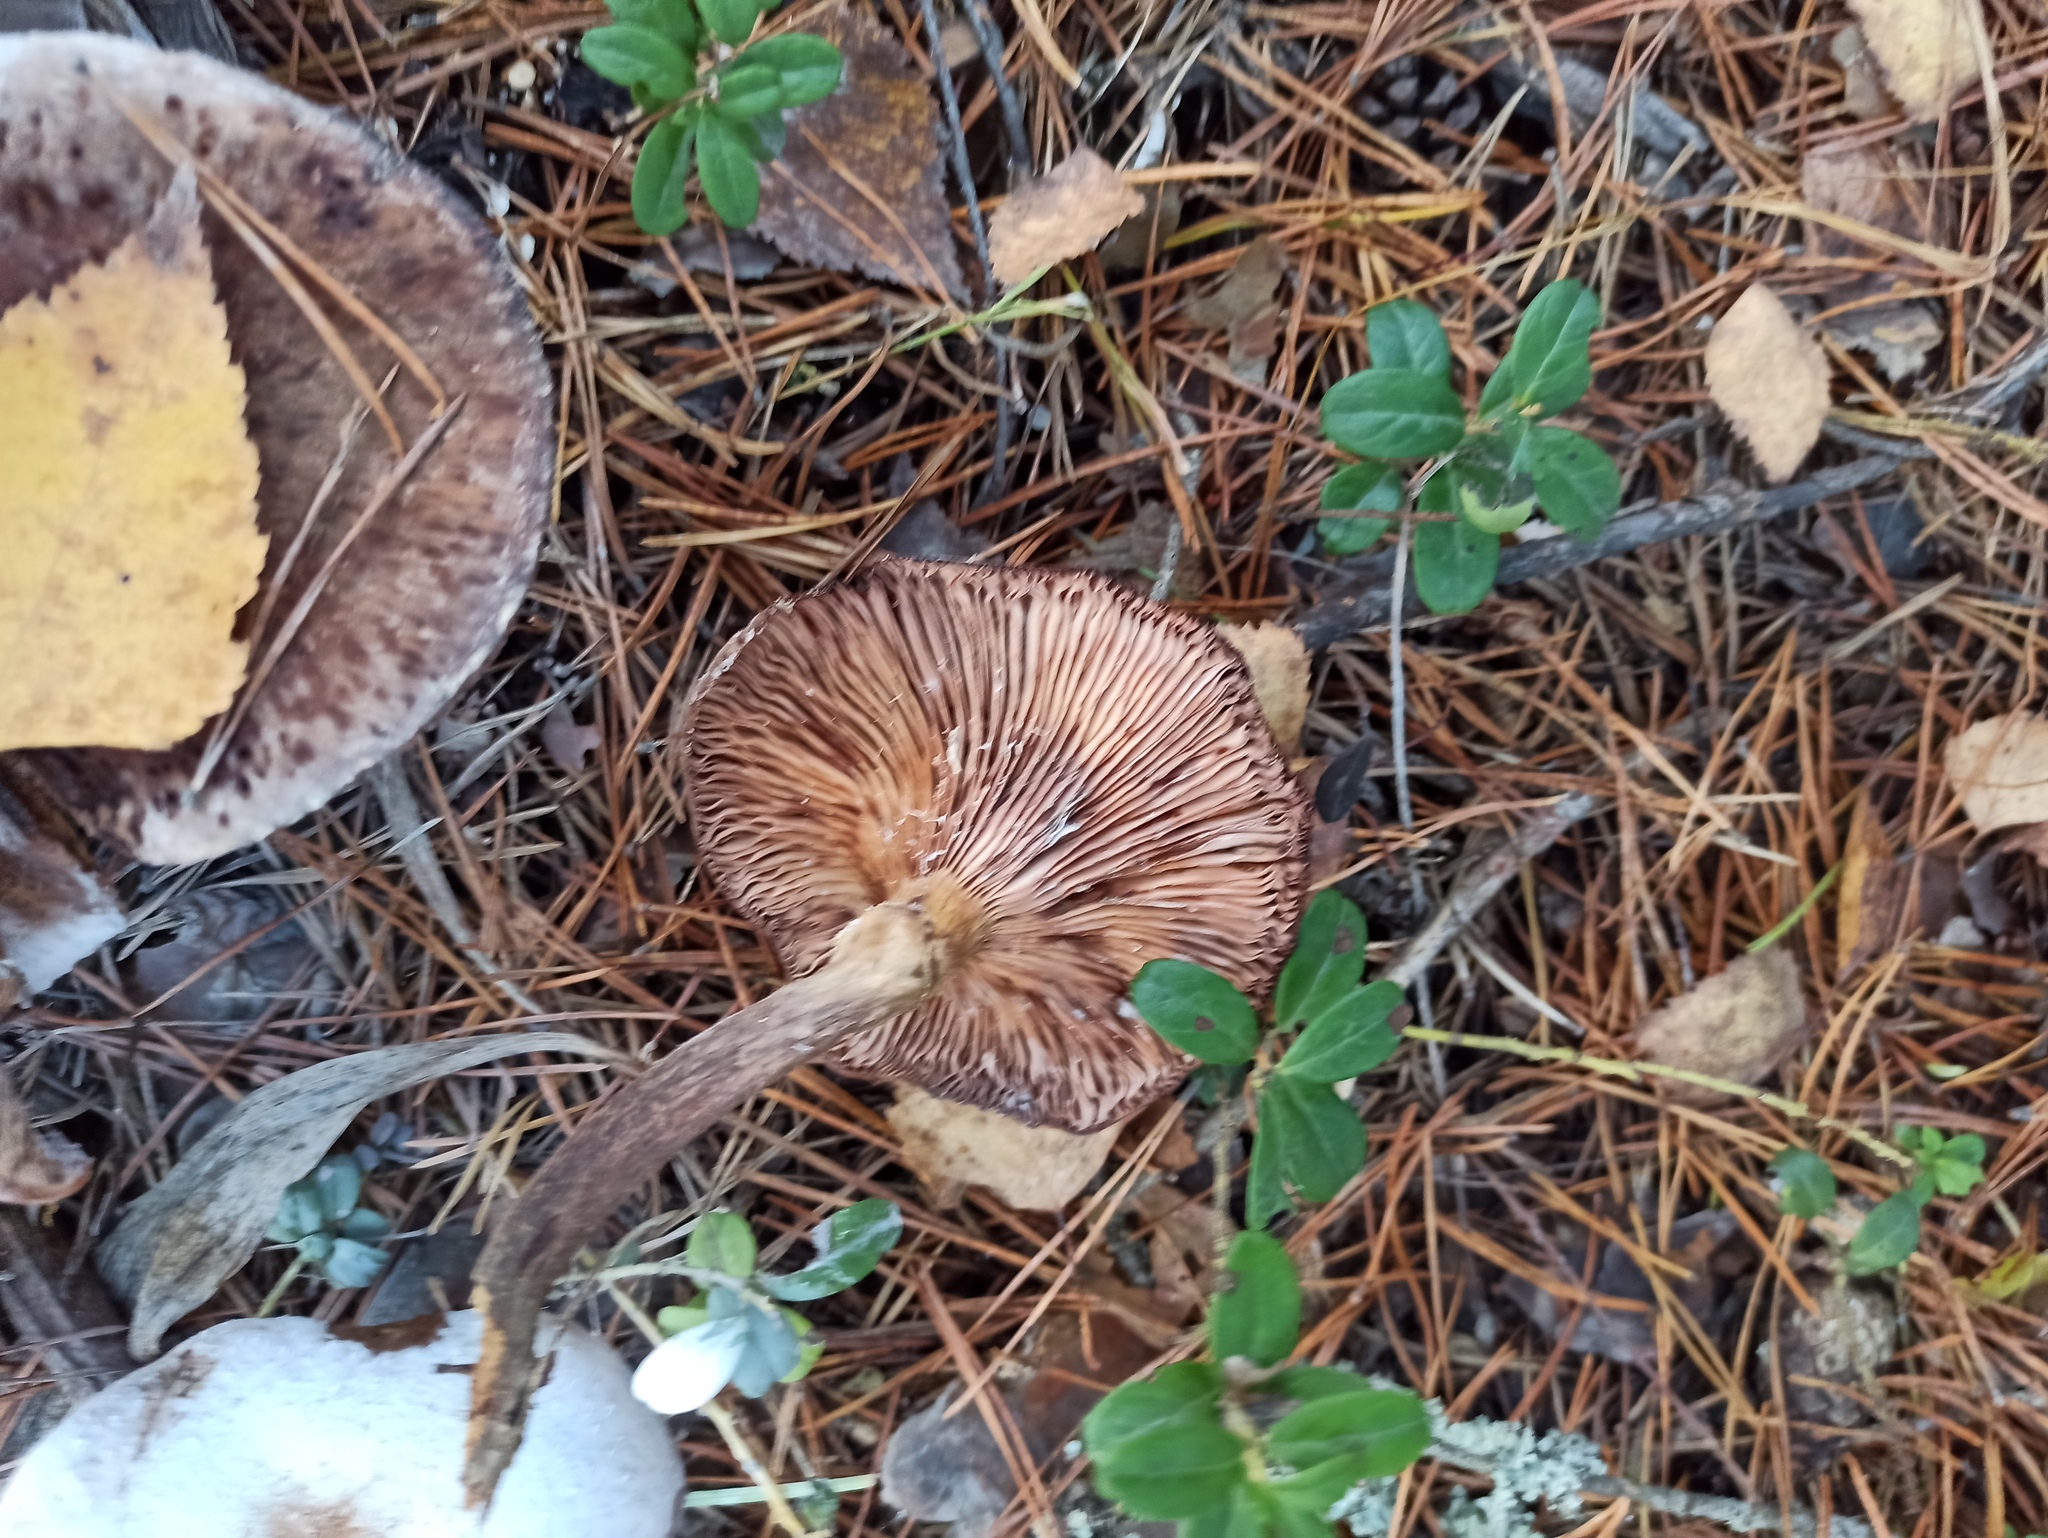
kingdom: Fungi
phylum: Basidiomycota
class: Agaricomycetes
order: Agaricales
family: Physalacriaceae
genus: Armillaria
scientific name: Armillaria
